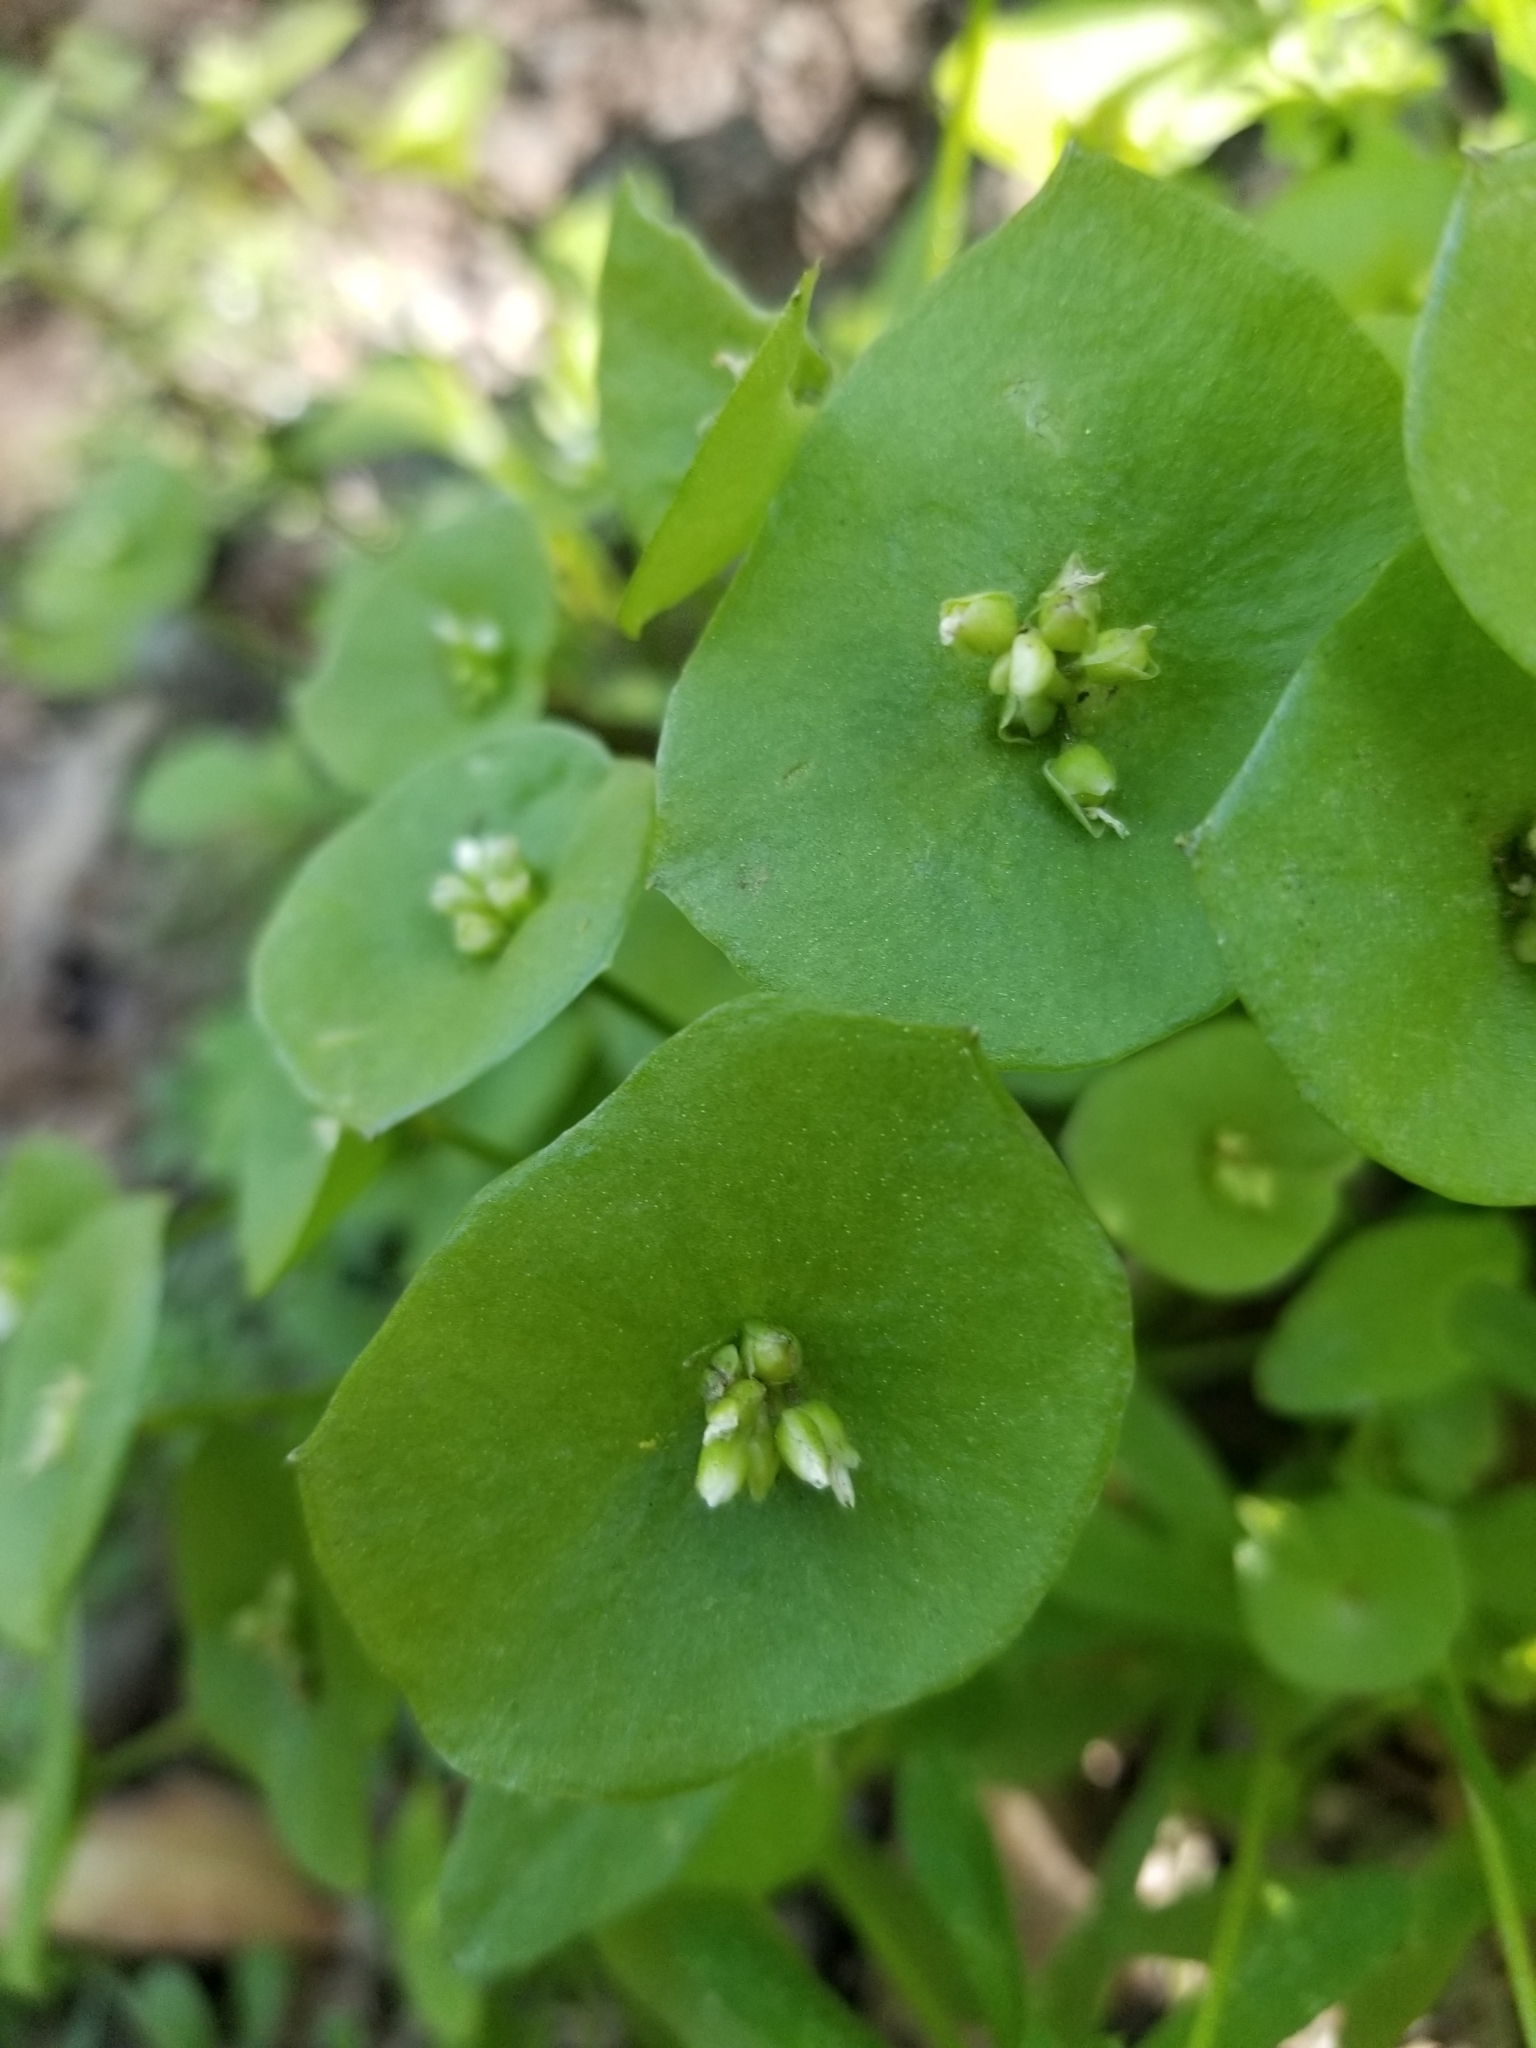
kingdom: Plantae
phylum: Tracheophyta
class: Magnoliopsida
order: Caryophyllales
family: Montiaceae
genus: Claytonia
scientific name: Claytonia perfoliata
